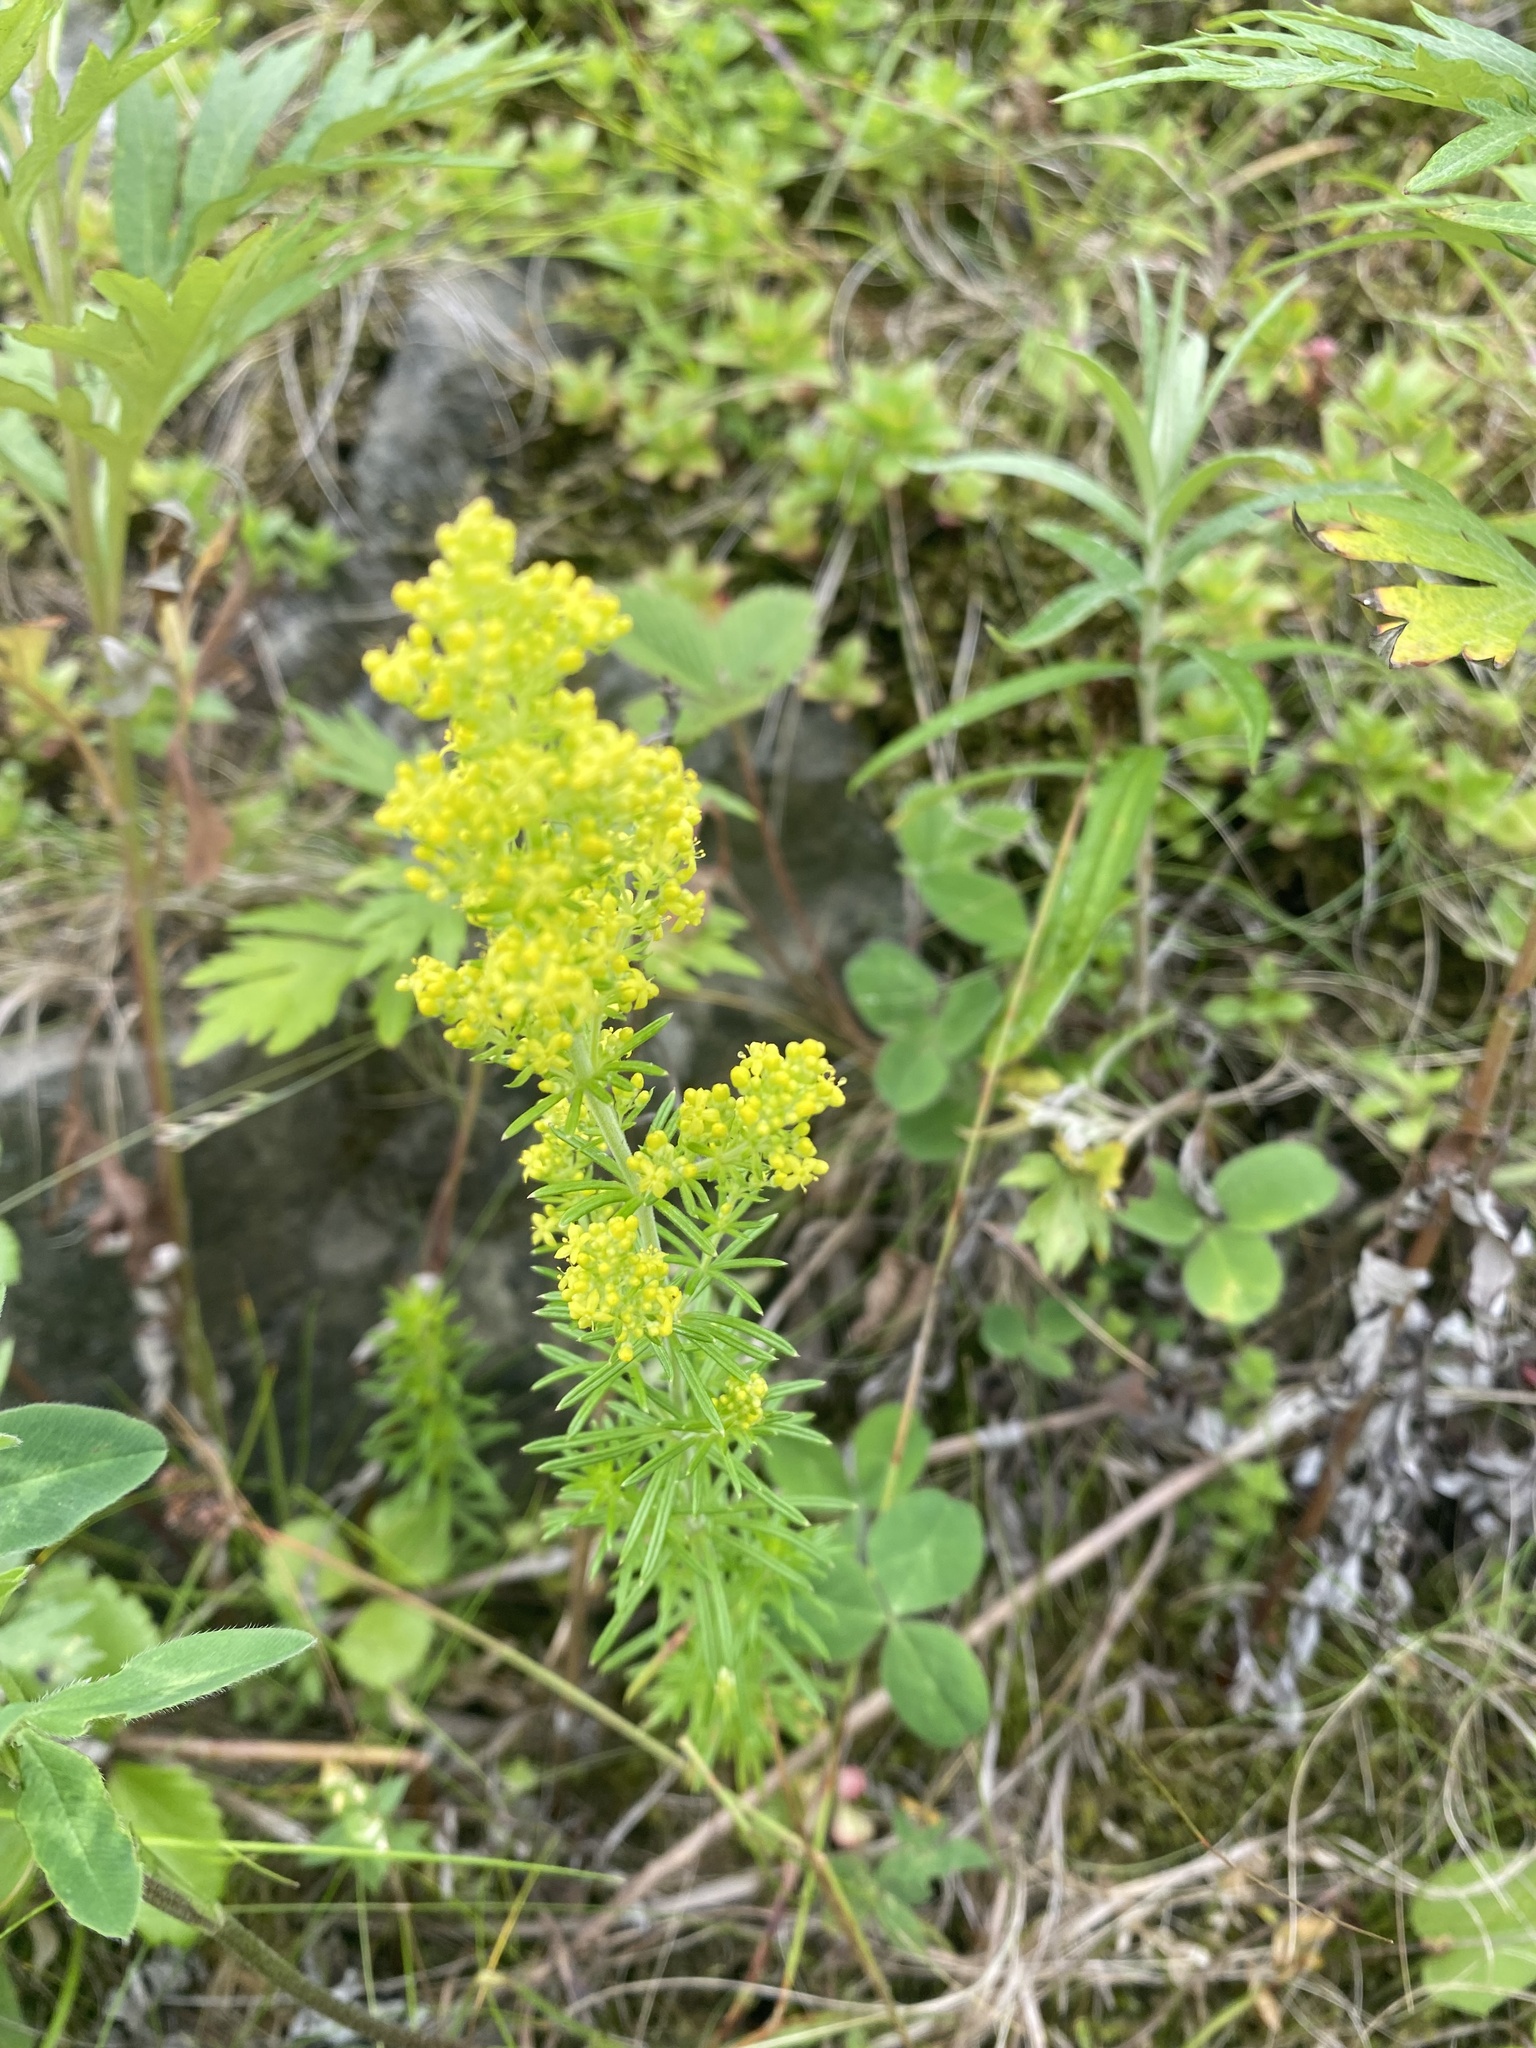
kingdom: Plantae
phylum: Tracheophyta
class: Magnoliopsida
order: Gentianales
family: Rubiaceae
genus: Galium
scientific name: Galium verum
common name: Lady's bedstraw
